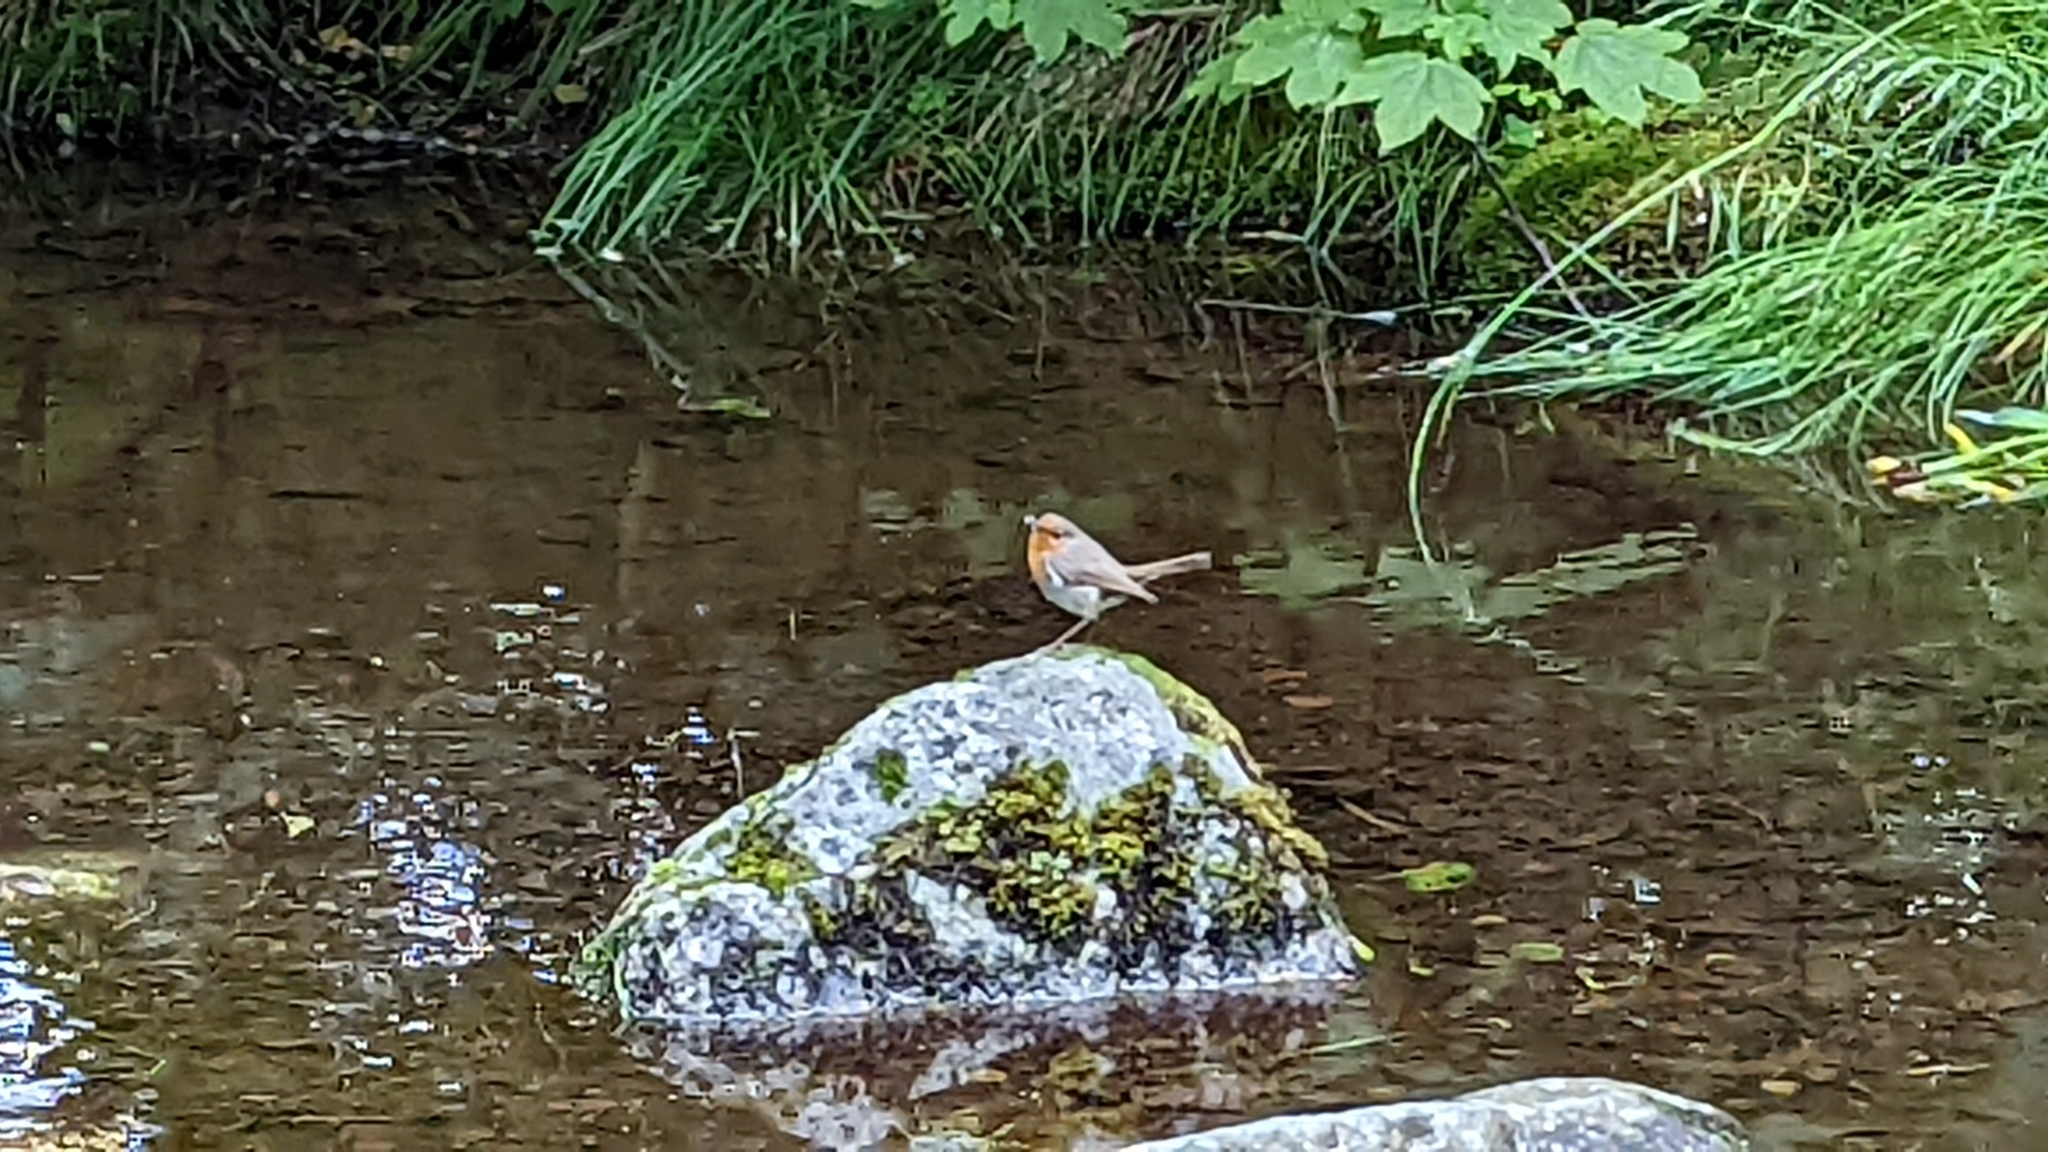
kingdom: Animalia
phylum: Chordata
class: Aves
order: Passeriformes
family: Muscicapidae
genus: Erithacus
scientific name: Erithacus rubecula
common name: European robin
